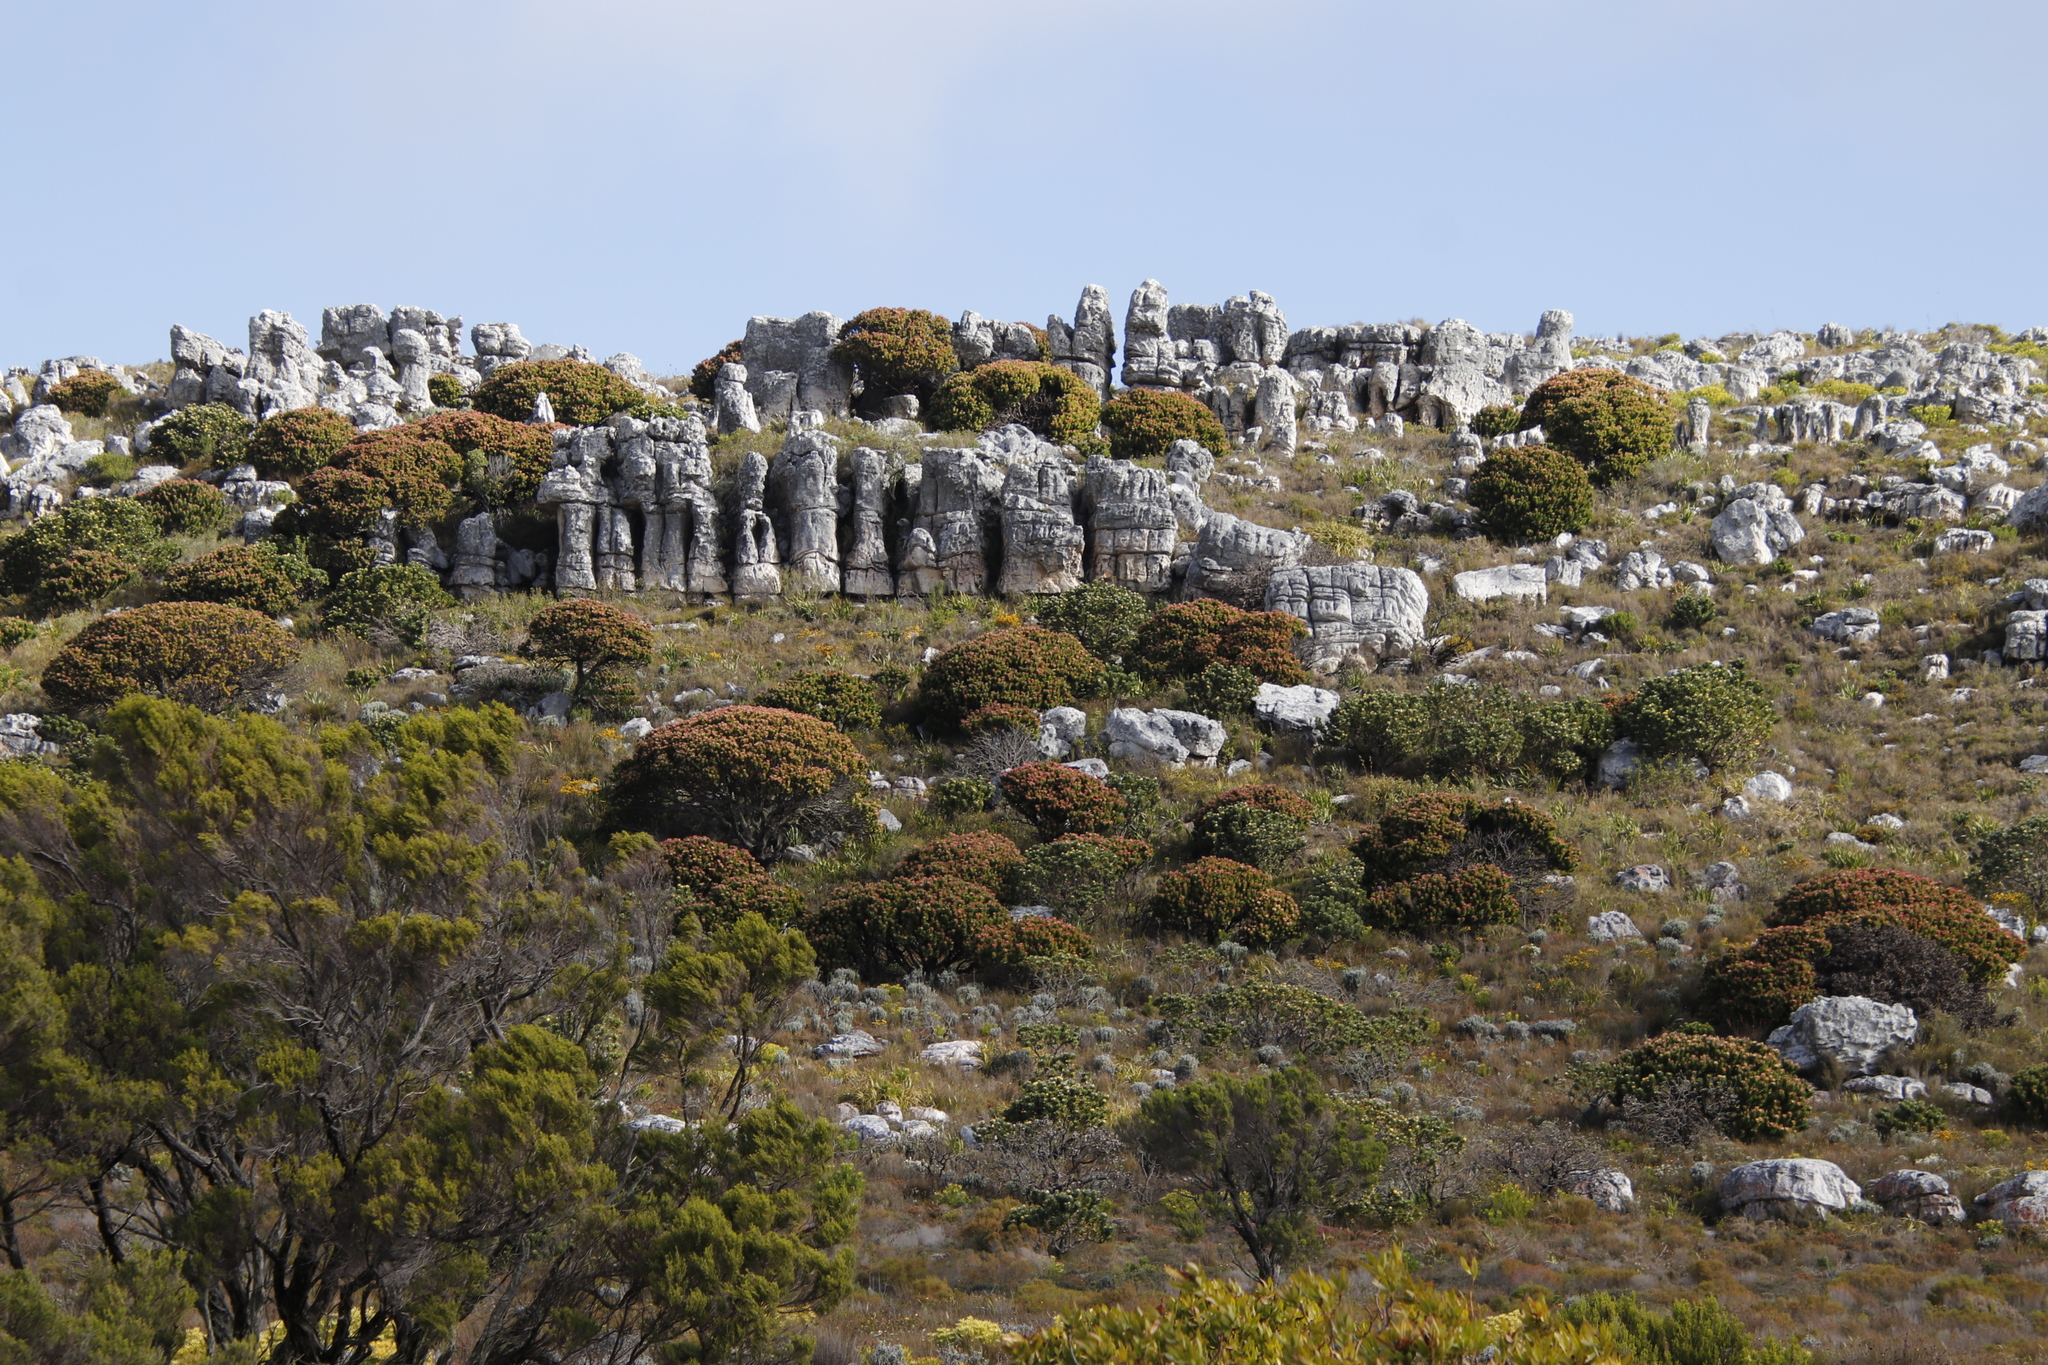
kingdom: Plantae
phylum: Tracheophyta
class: Magnoliopsida
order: Proteales
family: Proteaceae
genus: Mimetes
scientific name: Mimetes fimbriifolius
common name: Fringed bottlebrush
